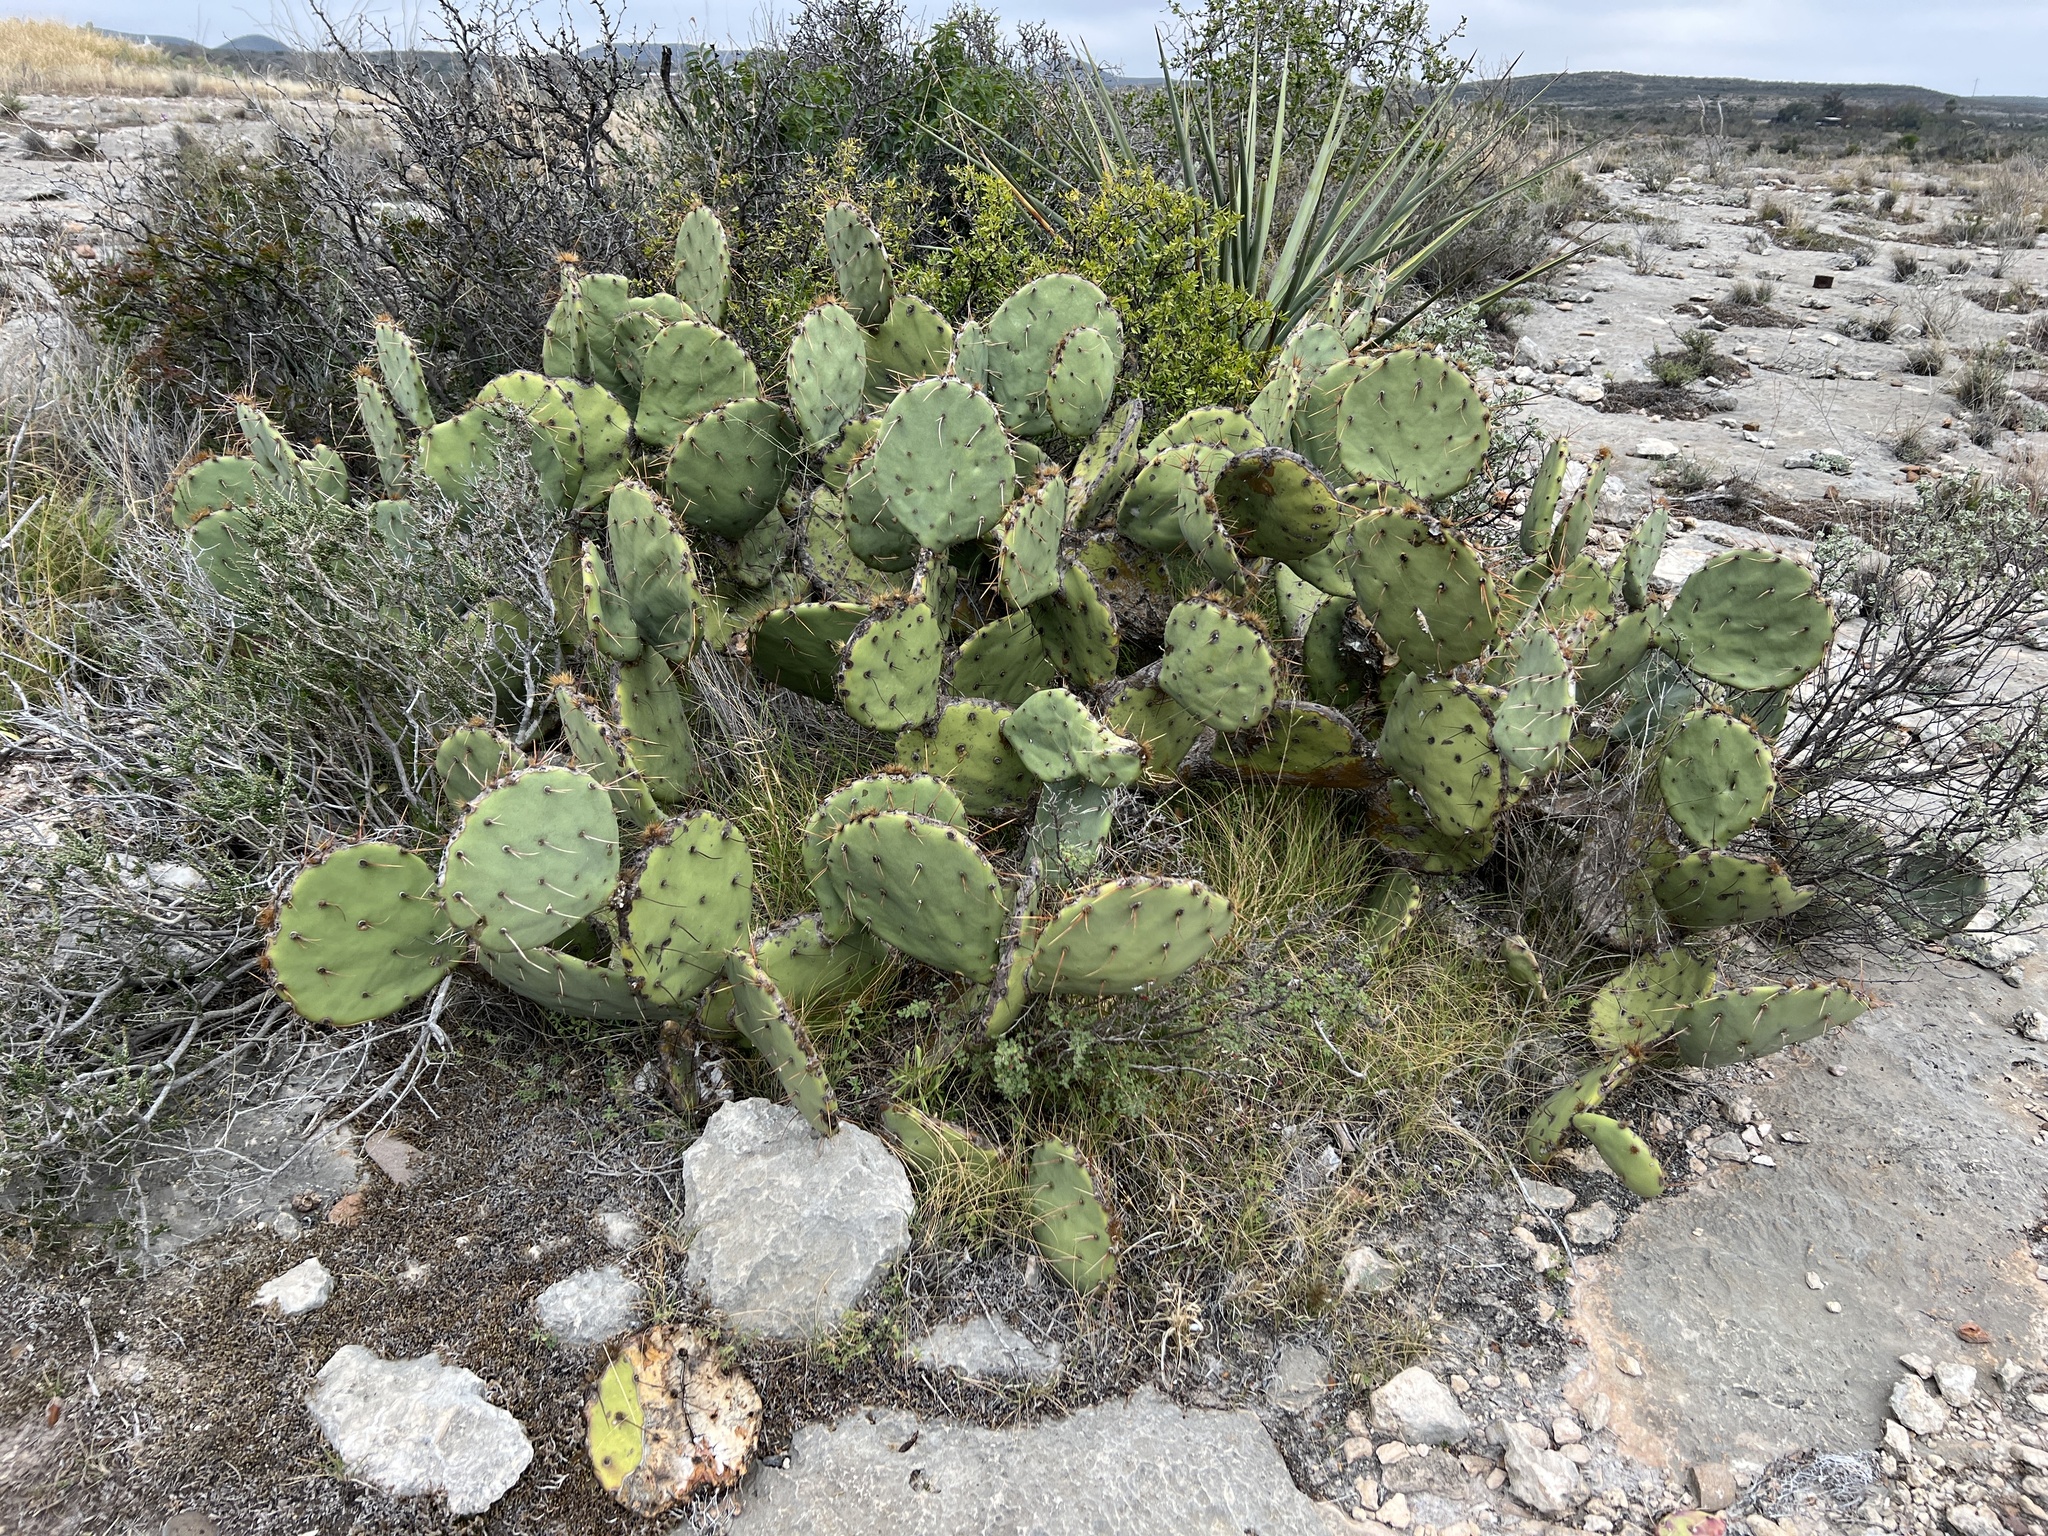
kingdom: Plantae
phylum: Tracheophyta
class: Magnoliopsida
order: Caryophyllales
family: Cactaceae
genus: Opuntia
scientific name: Opuntia engelmannii
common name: Cactus-apple
